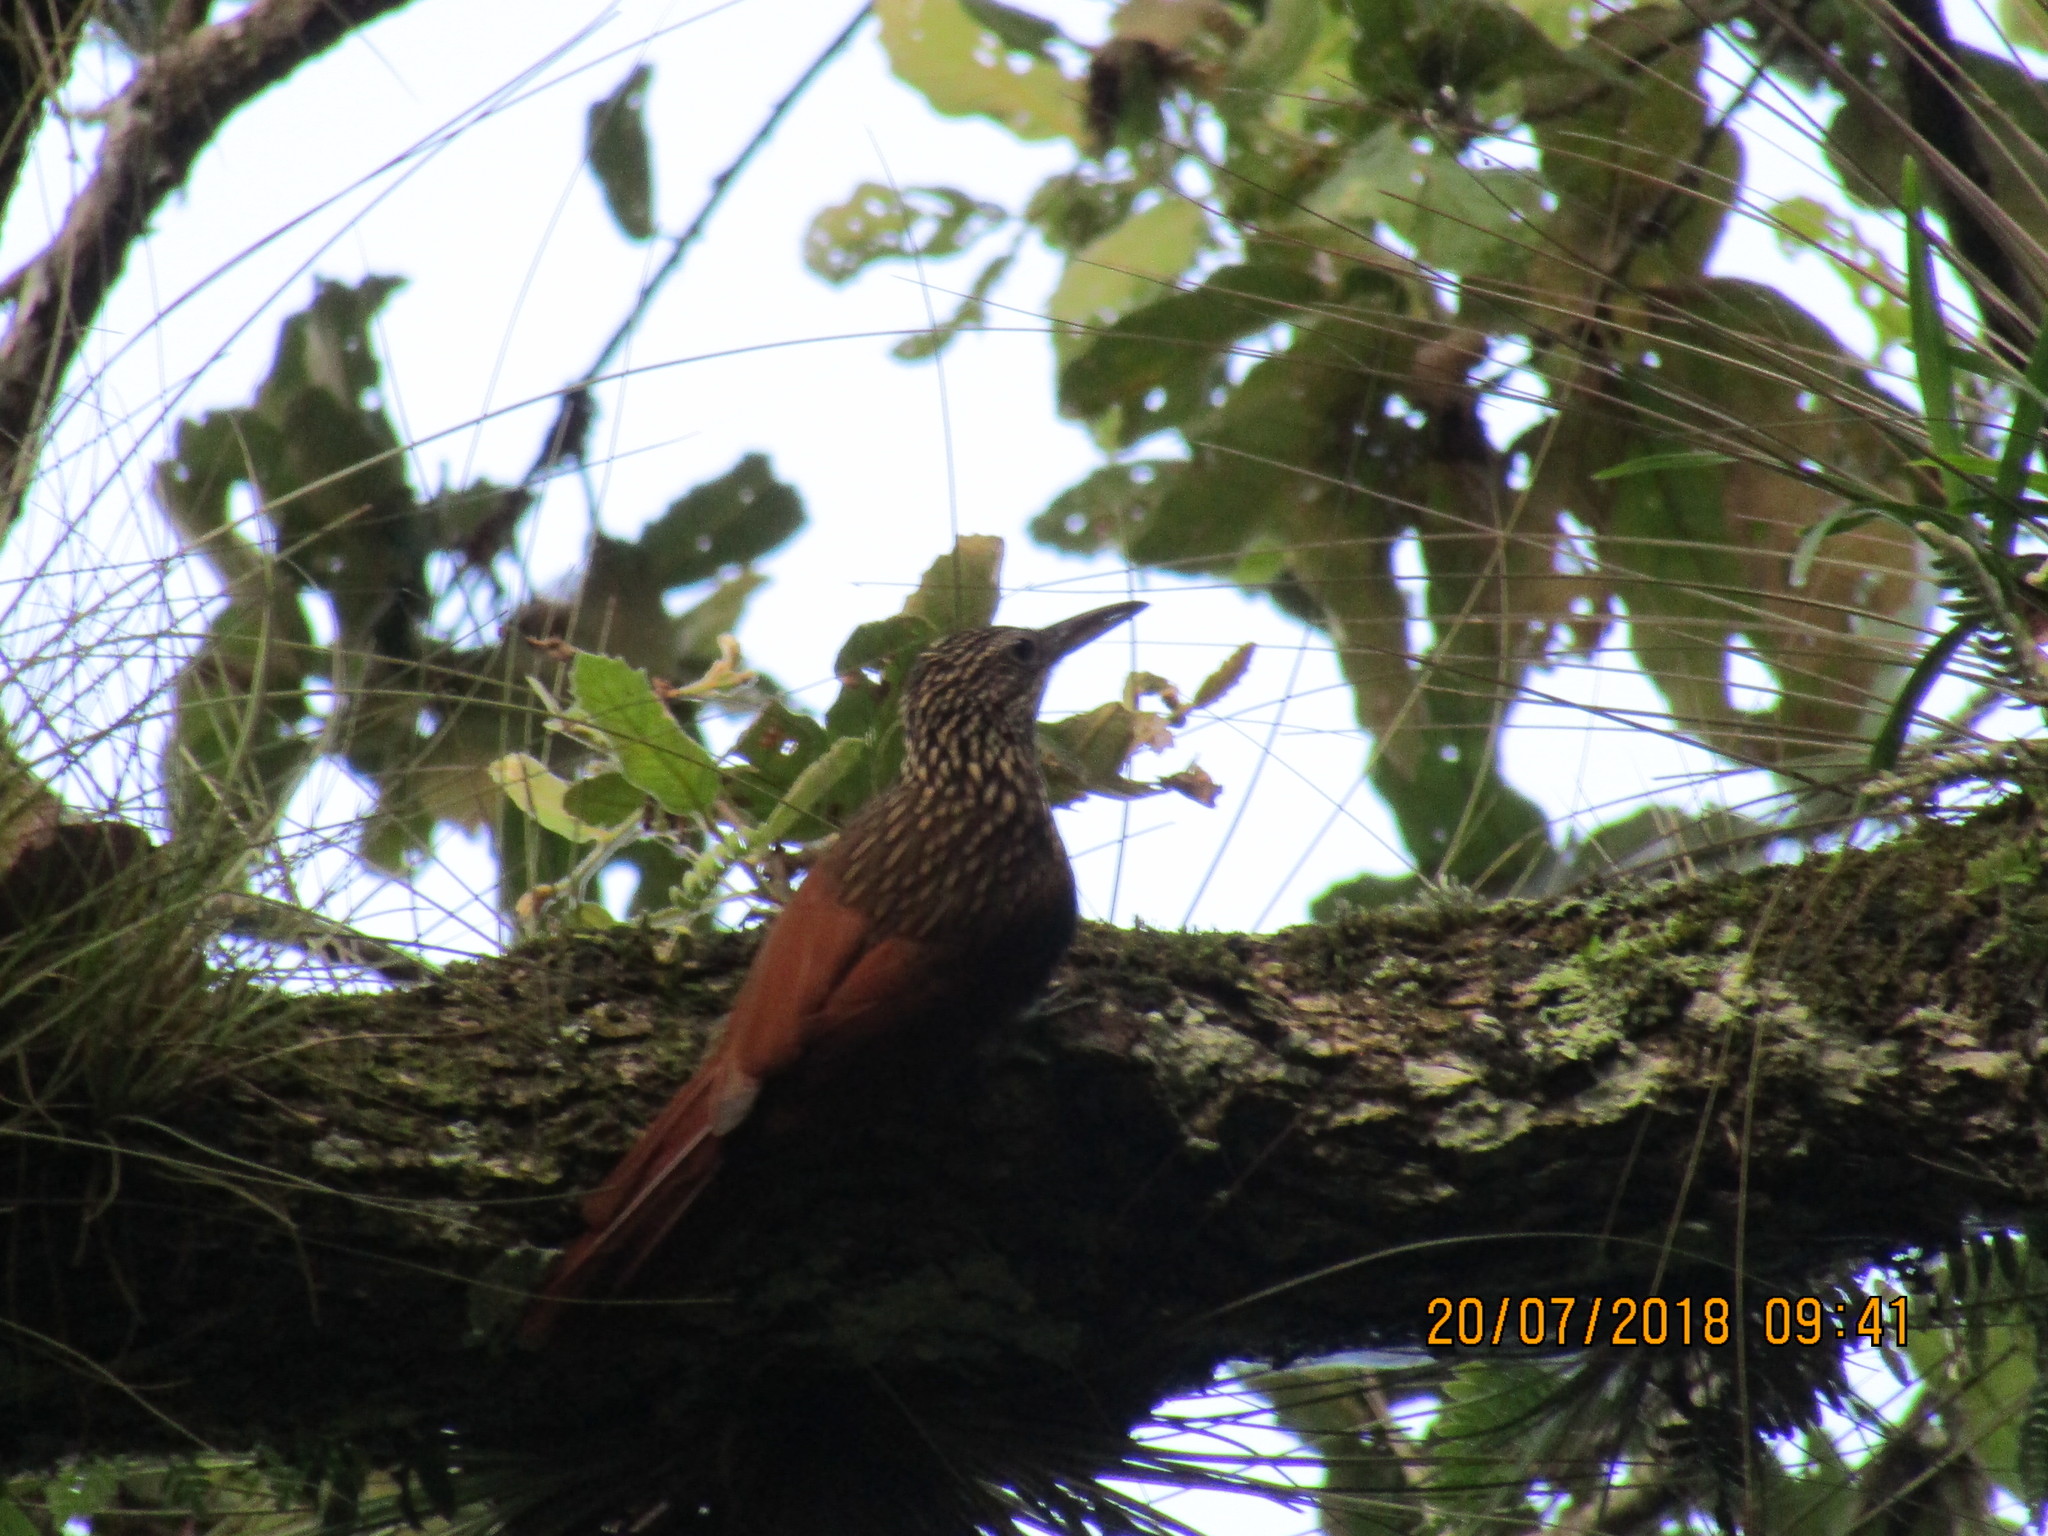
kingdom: Animalia
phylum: Chordata
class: Aves
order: Passeriformes
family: Furnariidae
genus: Xiphorhynchus
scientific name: Xiphorhynchus flavigaster
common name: Ivory-billed woodcreeper
